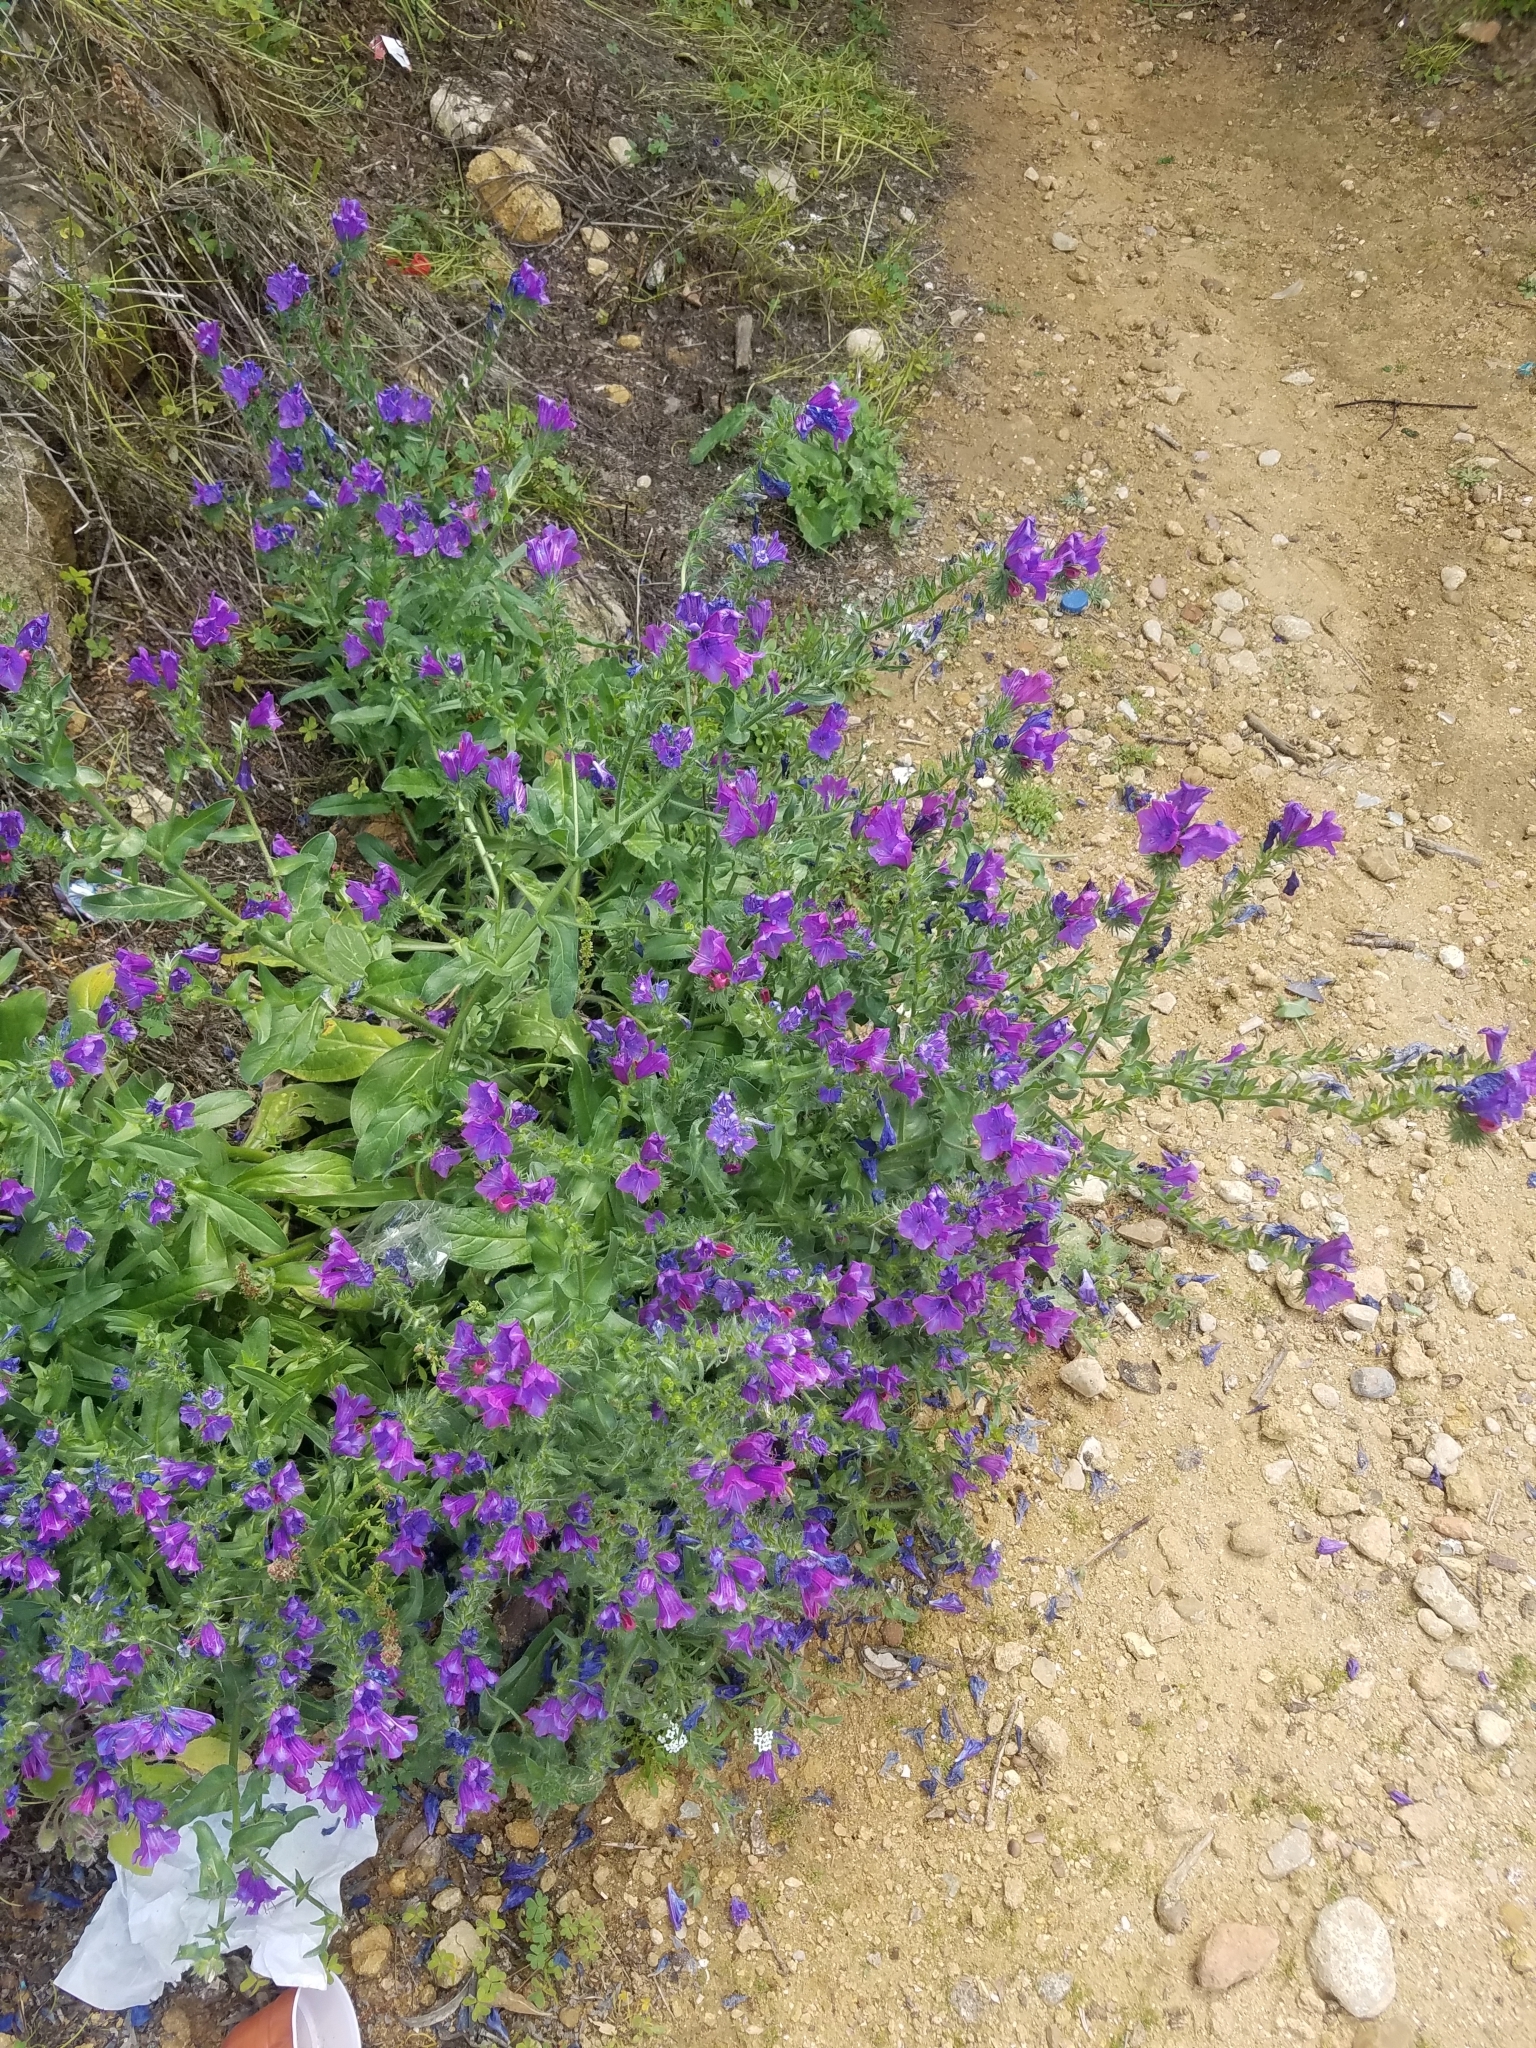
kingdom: Plantae
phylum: Tracheophyta
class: Magnoliopsida
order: Boraginales
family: Boraginaceae
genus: Echium
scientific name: Echium plantagineum
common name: Purple viper's-bugloss
